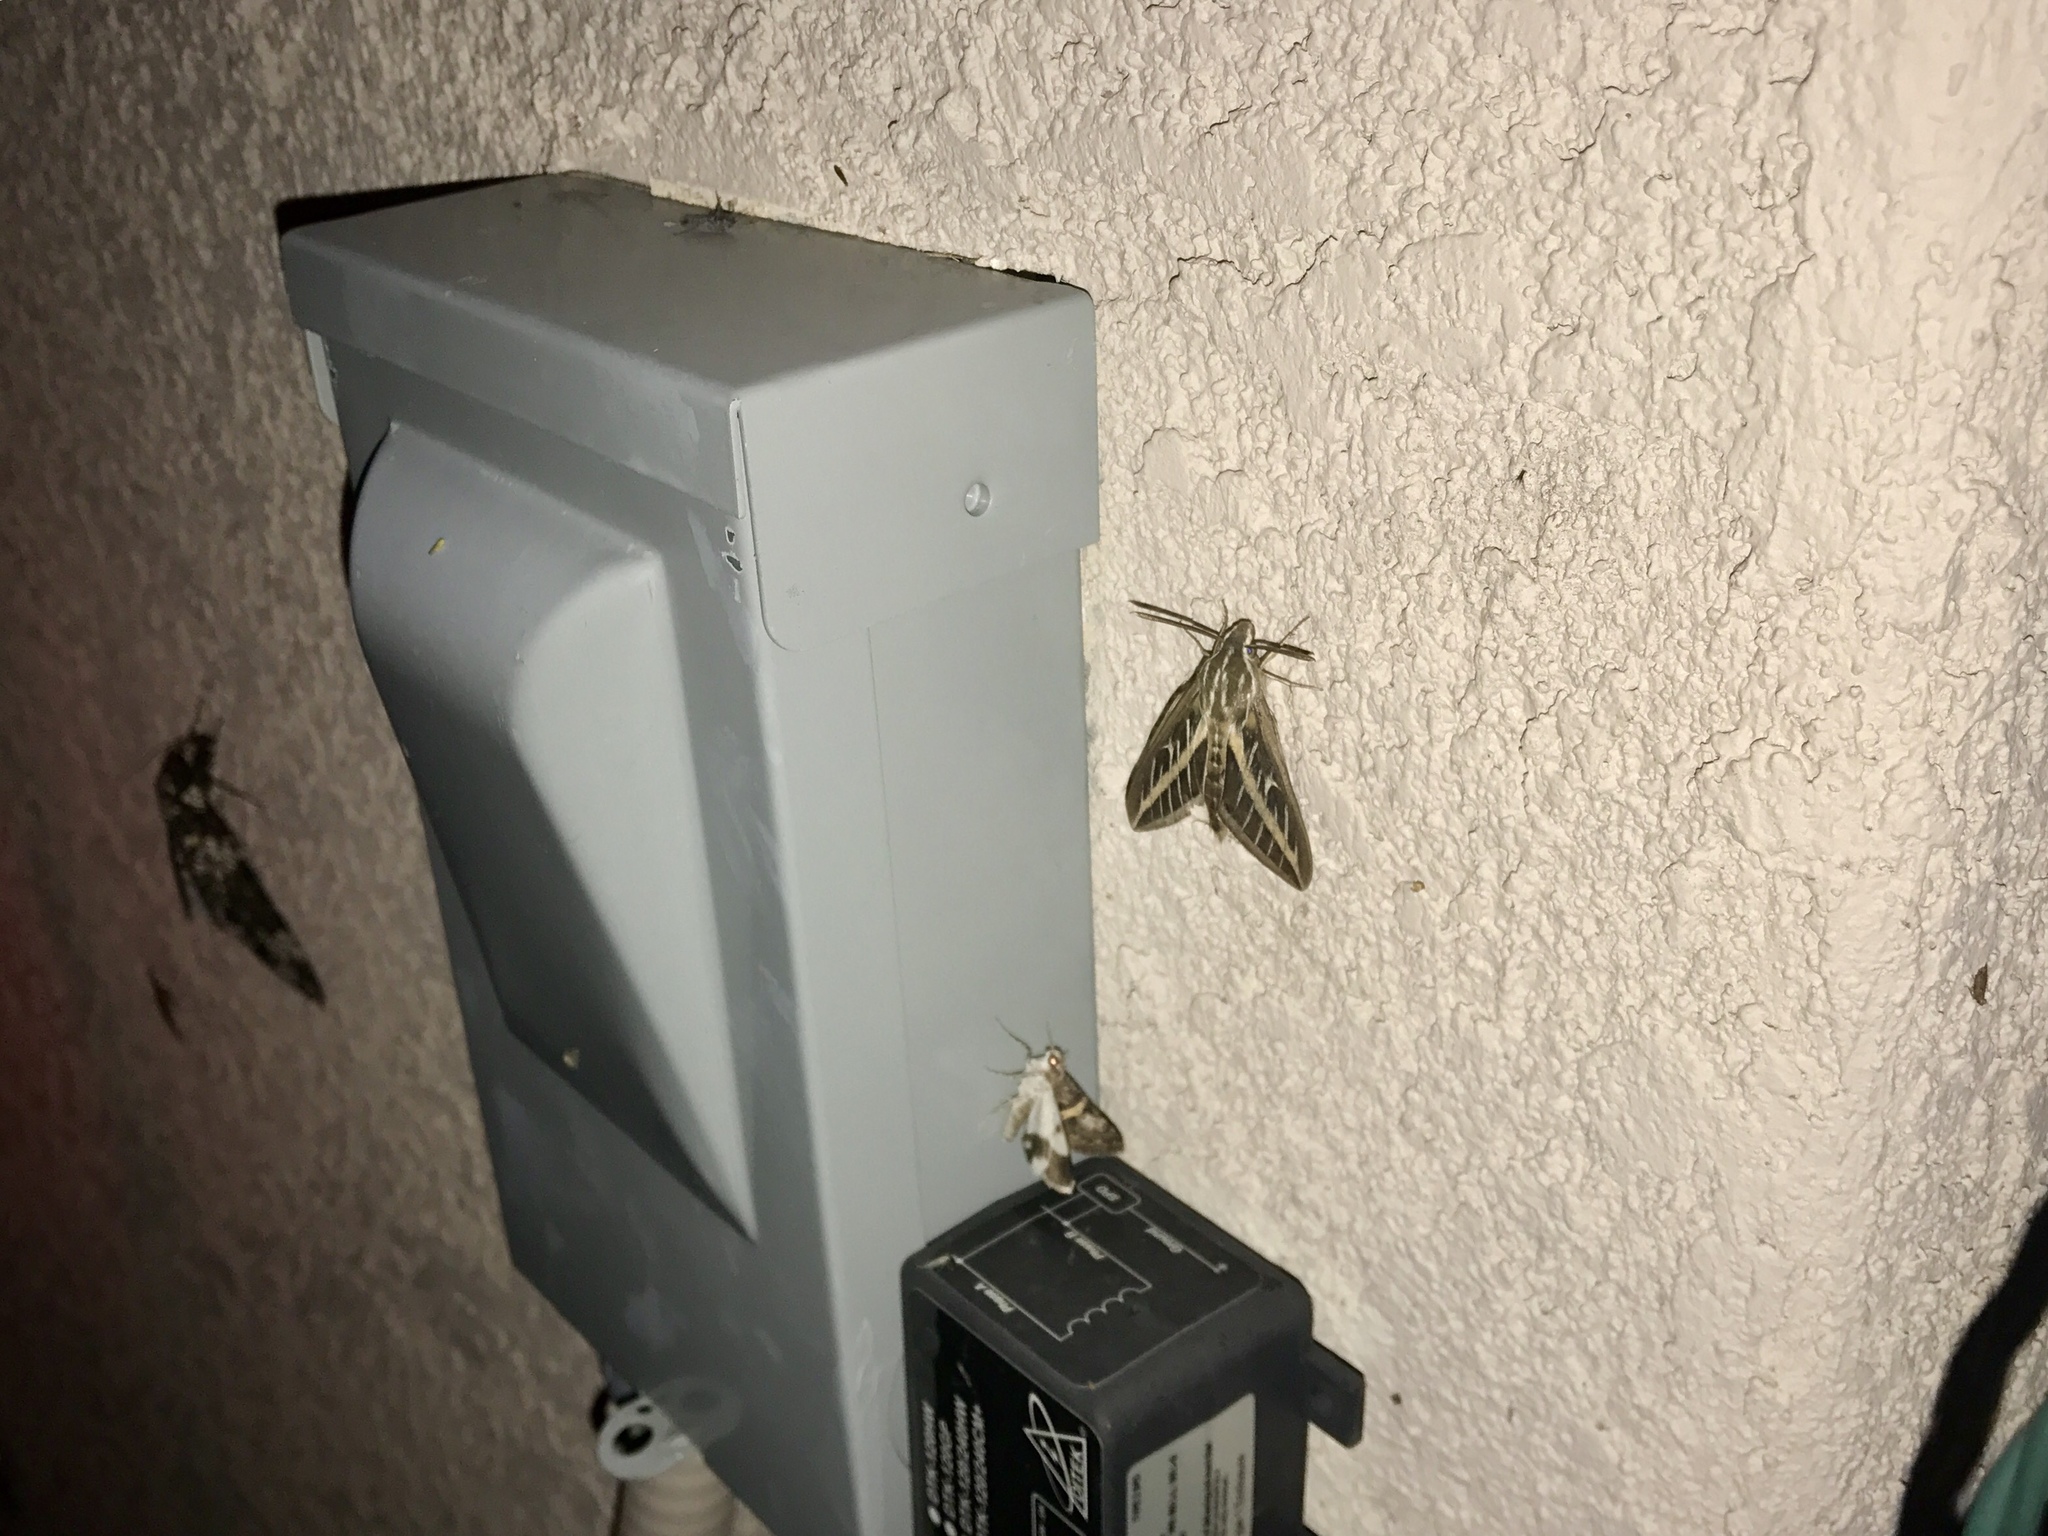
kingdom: Animalia
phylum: Arthropoda
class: Insecta
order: Lepidoptera
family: Sphingidae
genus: Hyles
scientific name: Hyles lineata
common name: White-lined sphinx
